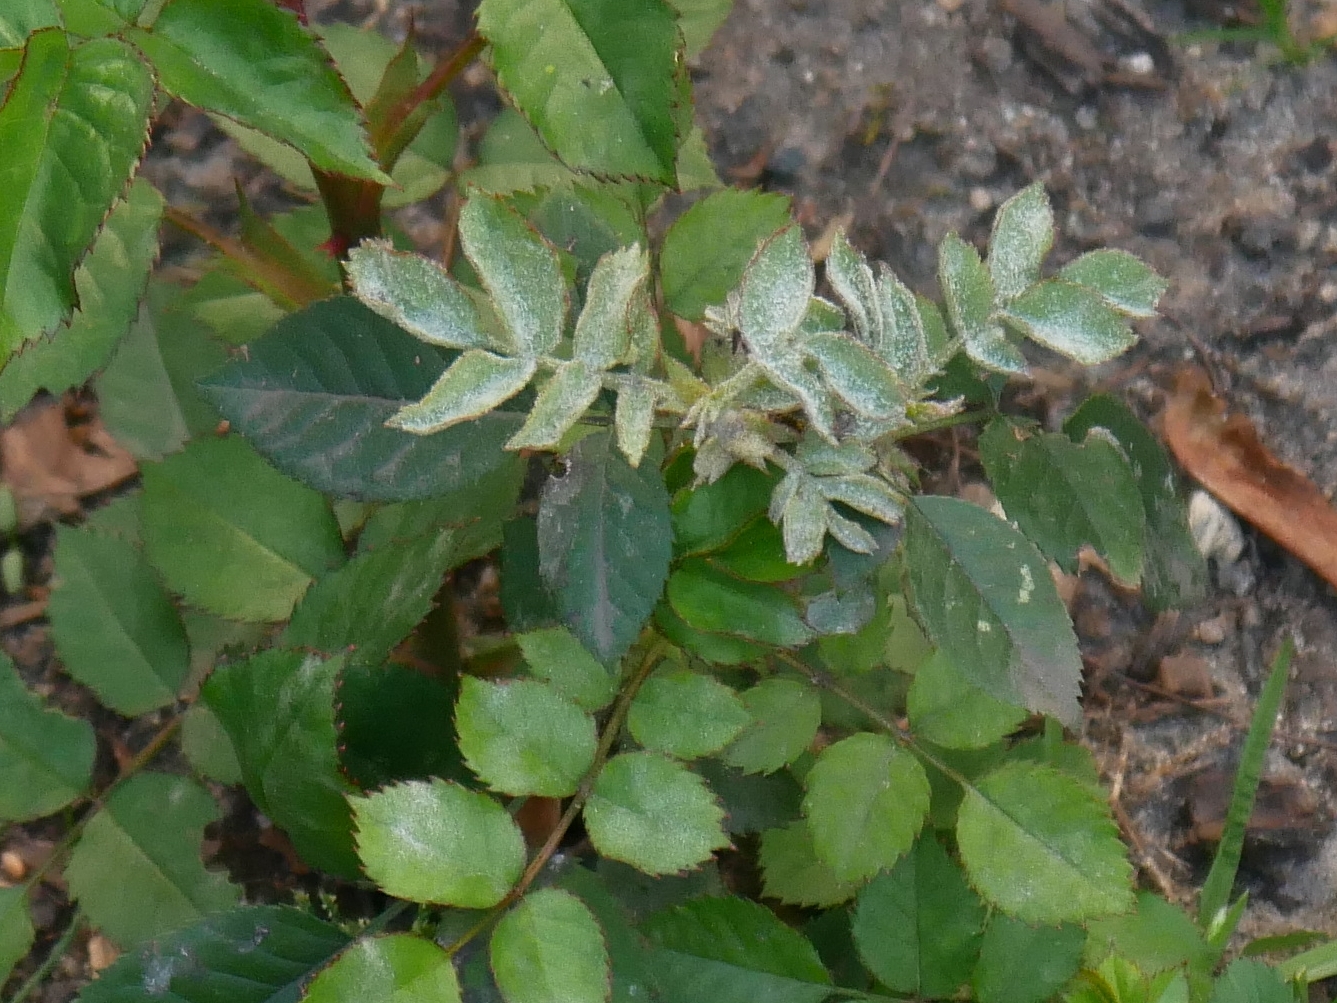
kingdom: Fungi
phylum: Ascomycota
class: Leotiomycetes
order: Helotiales
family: Erysiphaceae
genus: Podosphaera
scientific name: Podosphaera pannosa
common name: Rose mildew
